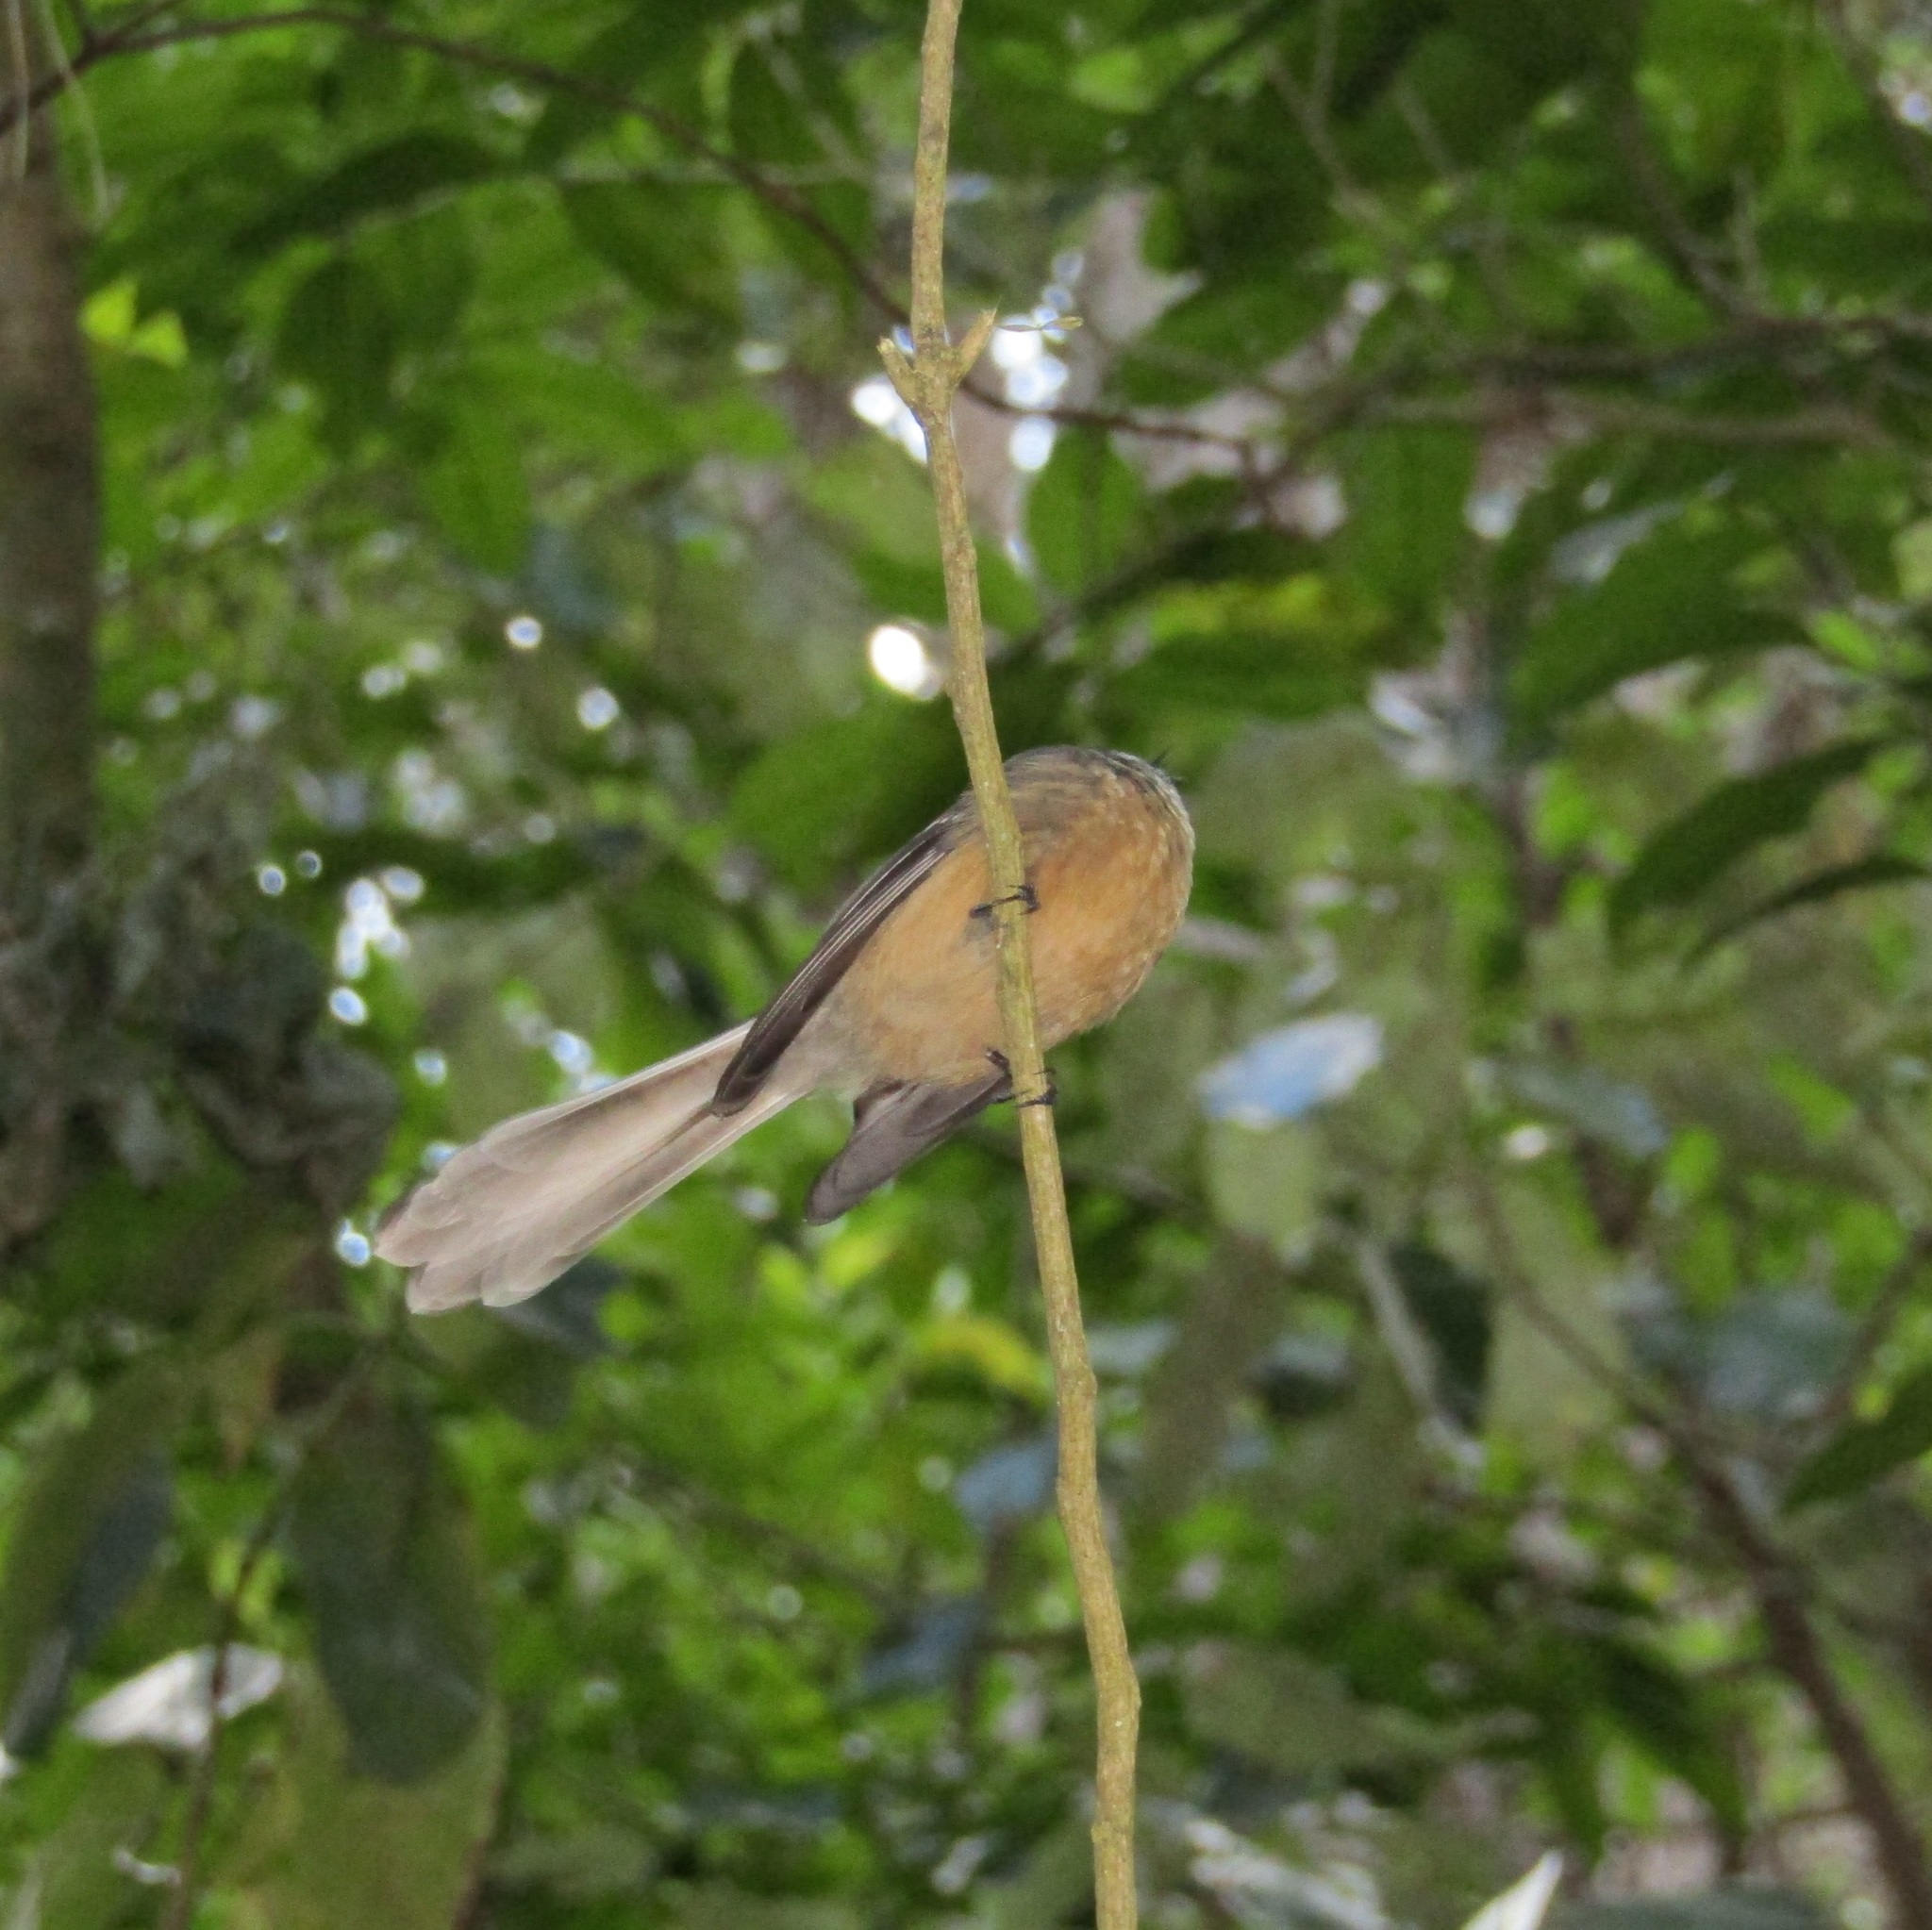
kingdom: Animalia
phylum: Chordata
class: Aves
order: Passeriformes
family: Rhipiduridae
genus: Rhipidura
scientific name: Rhipidura fuliginosa
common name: New zealand fantail
